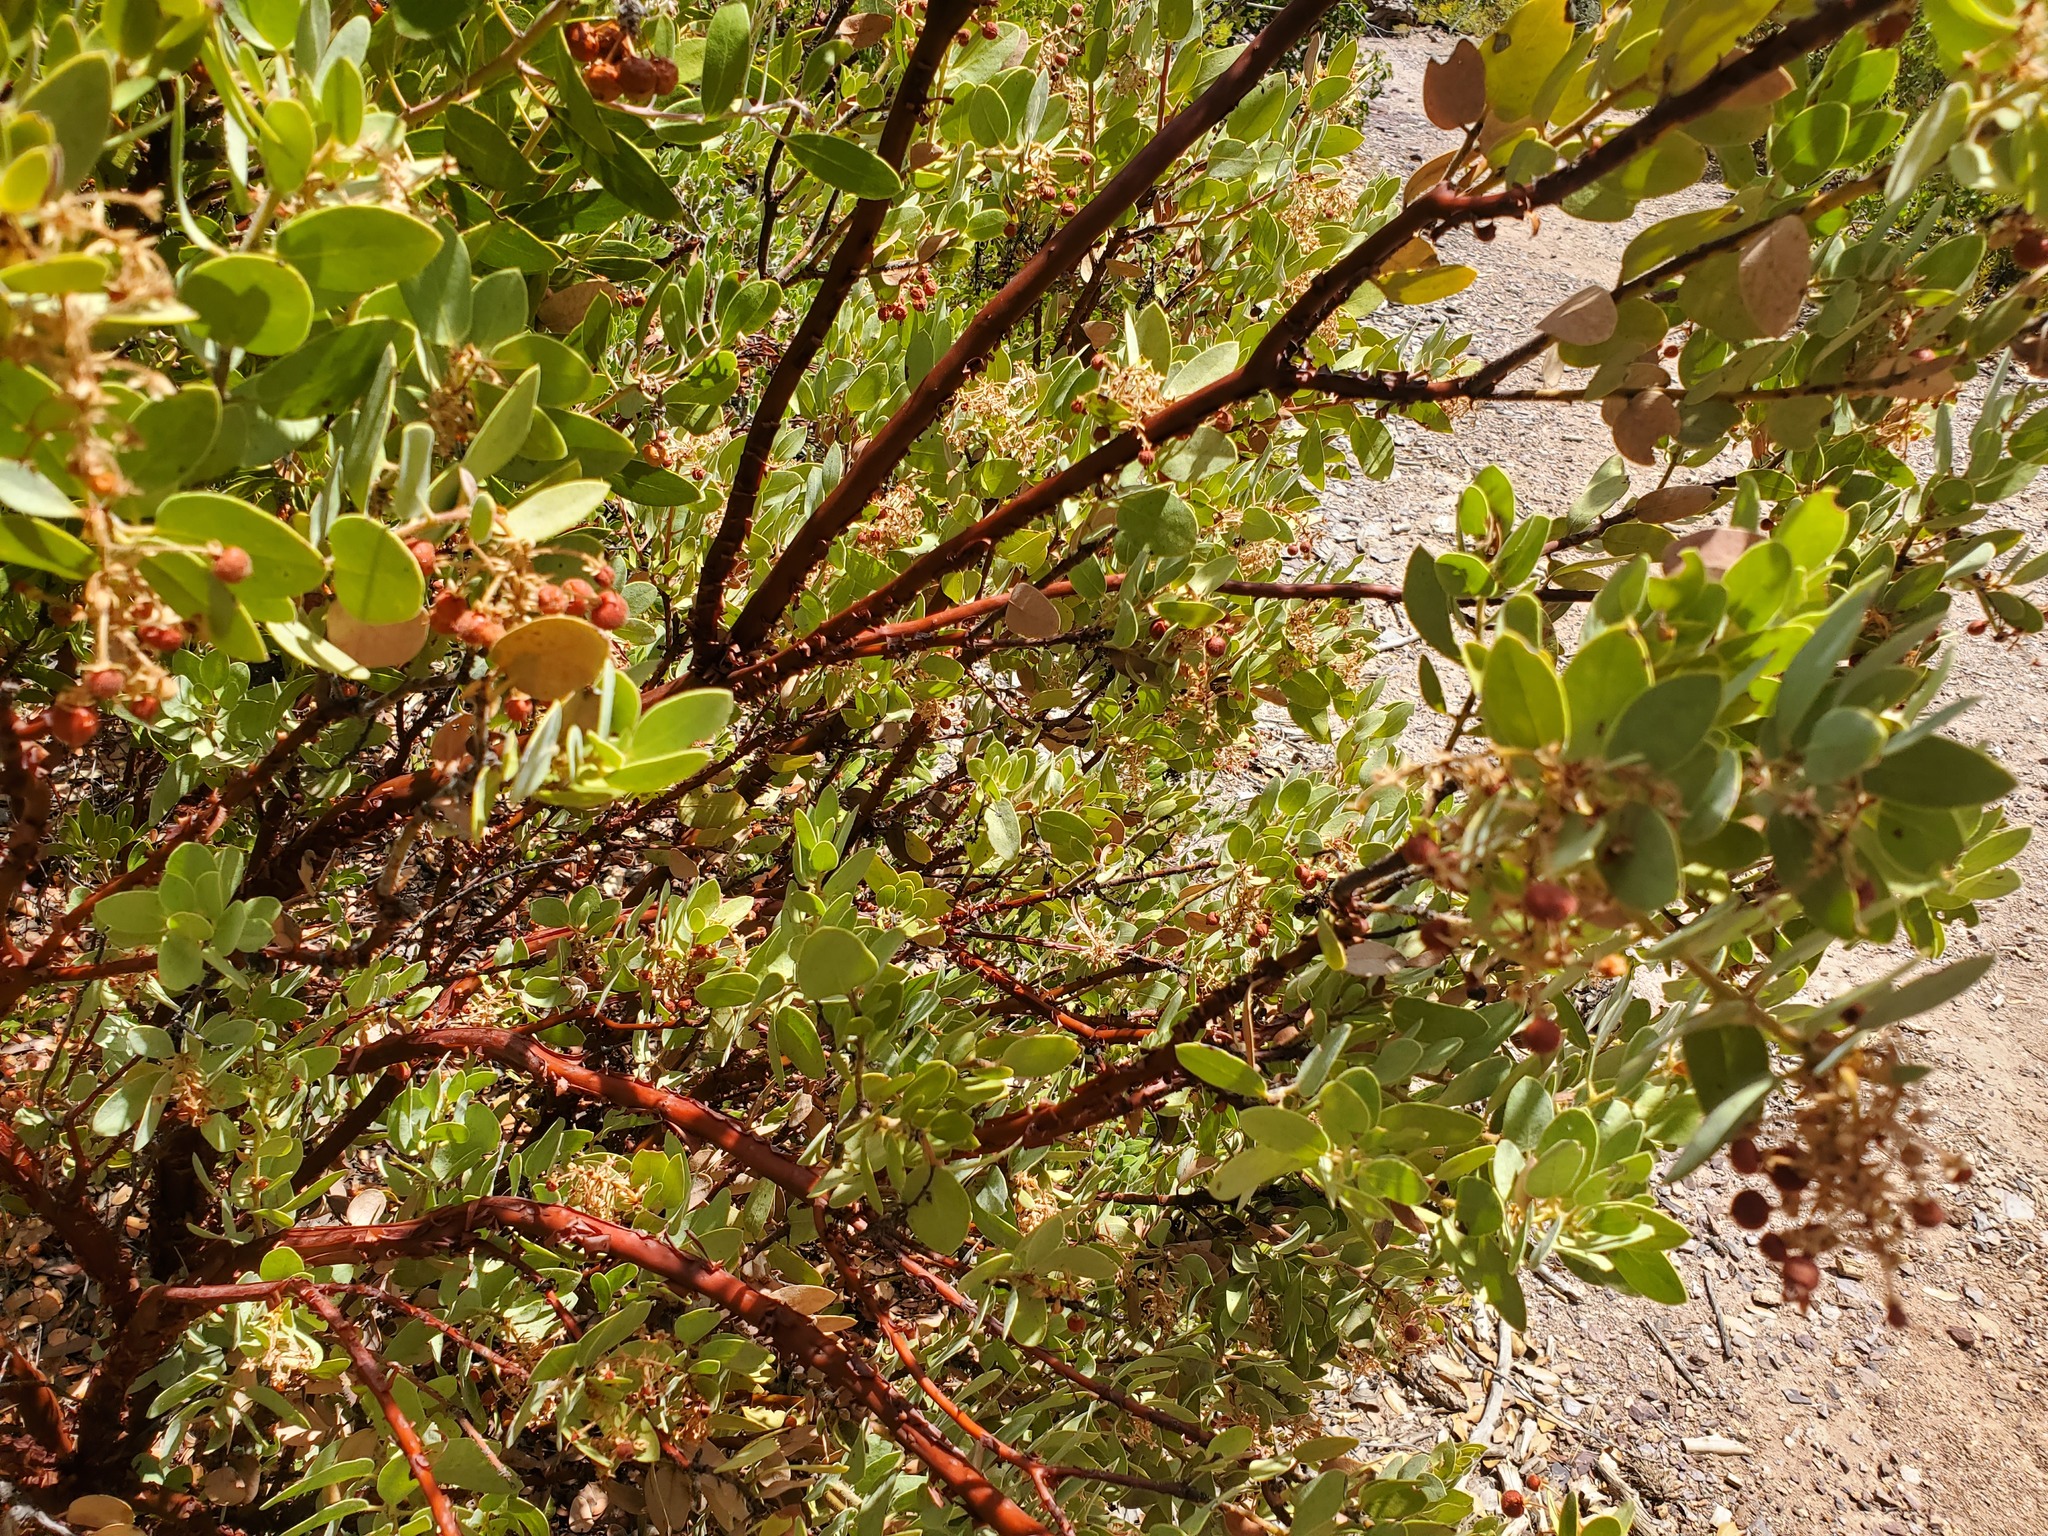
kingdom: Plantae
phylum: Tracheophyta
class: Magnoliopsida
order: Ericales
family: Ericaceae
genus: Arctostaphylos
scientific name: Arctostaphylos pringlei
